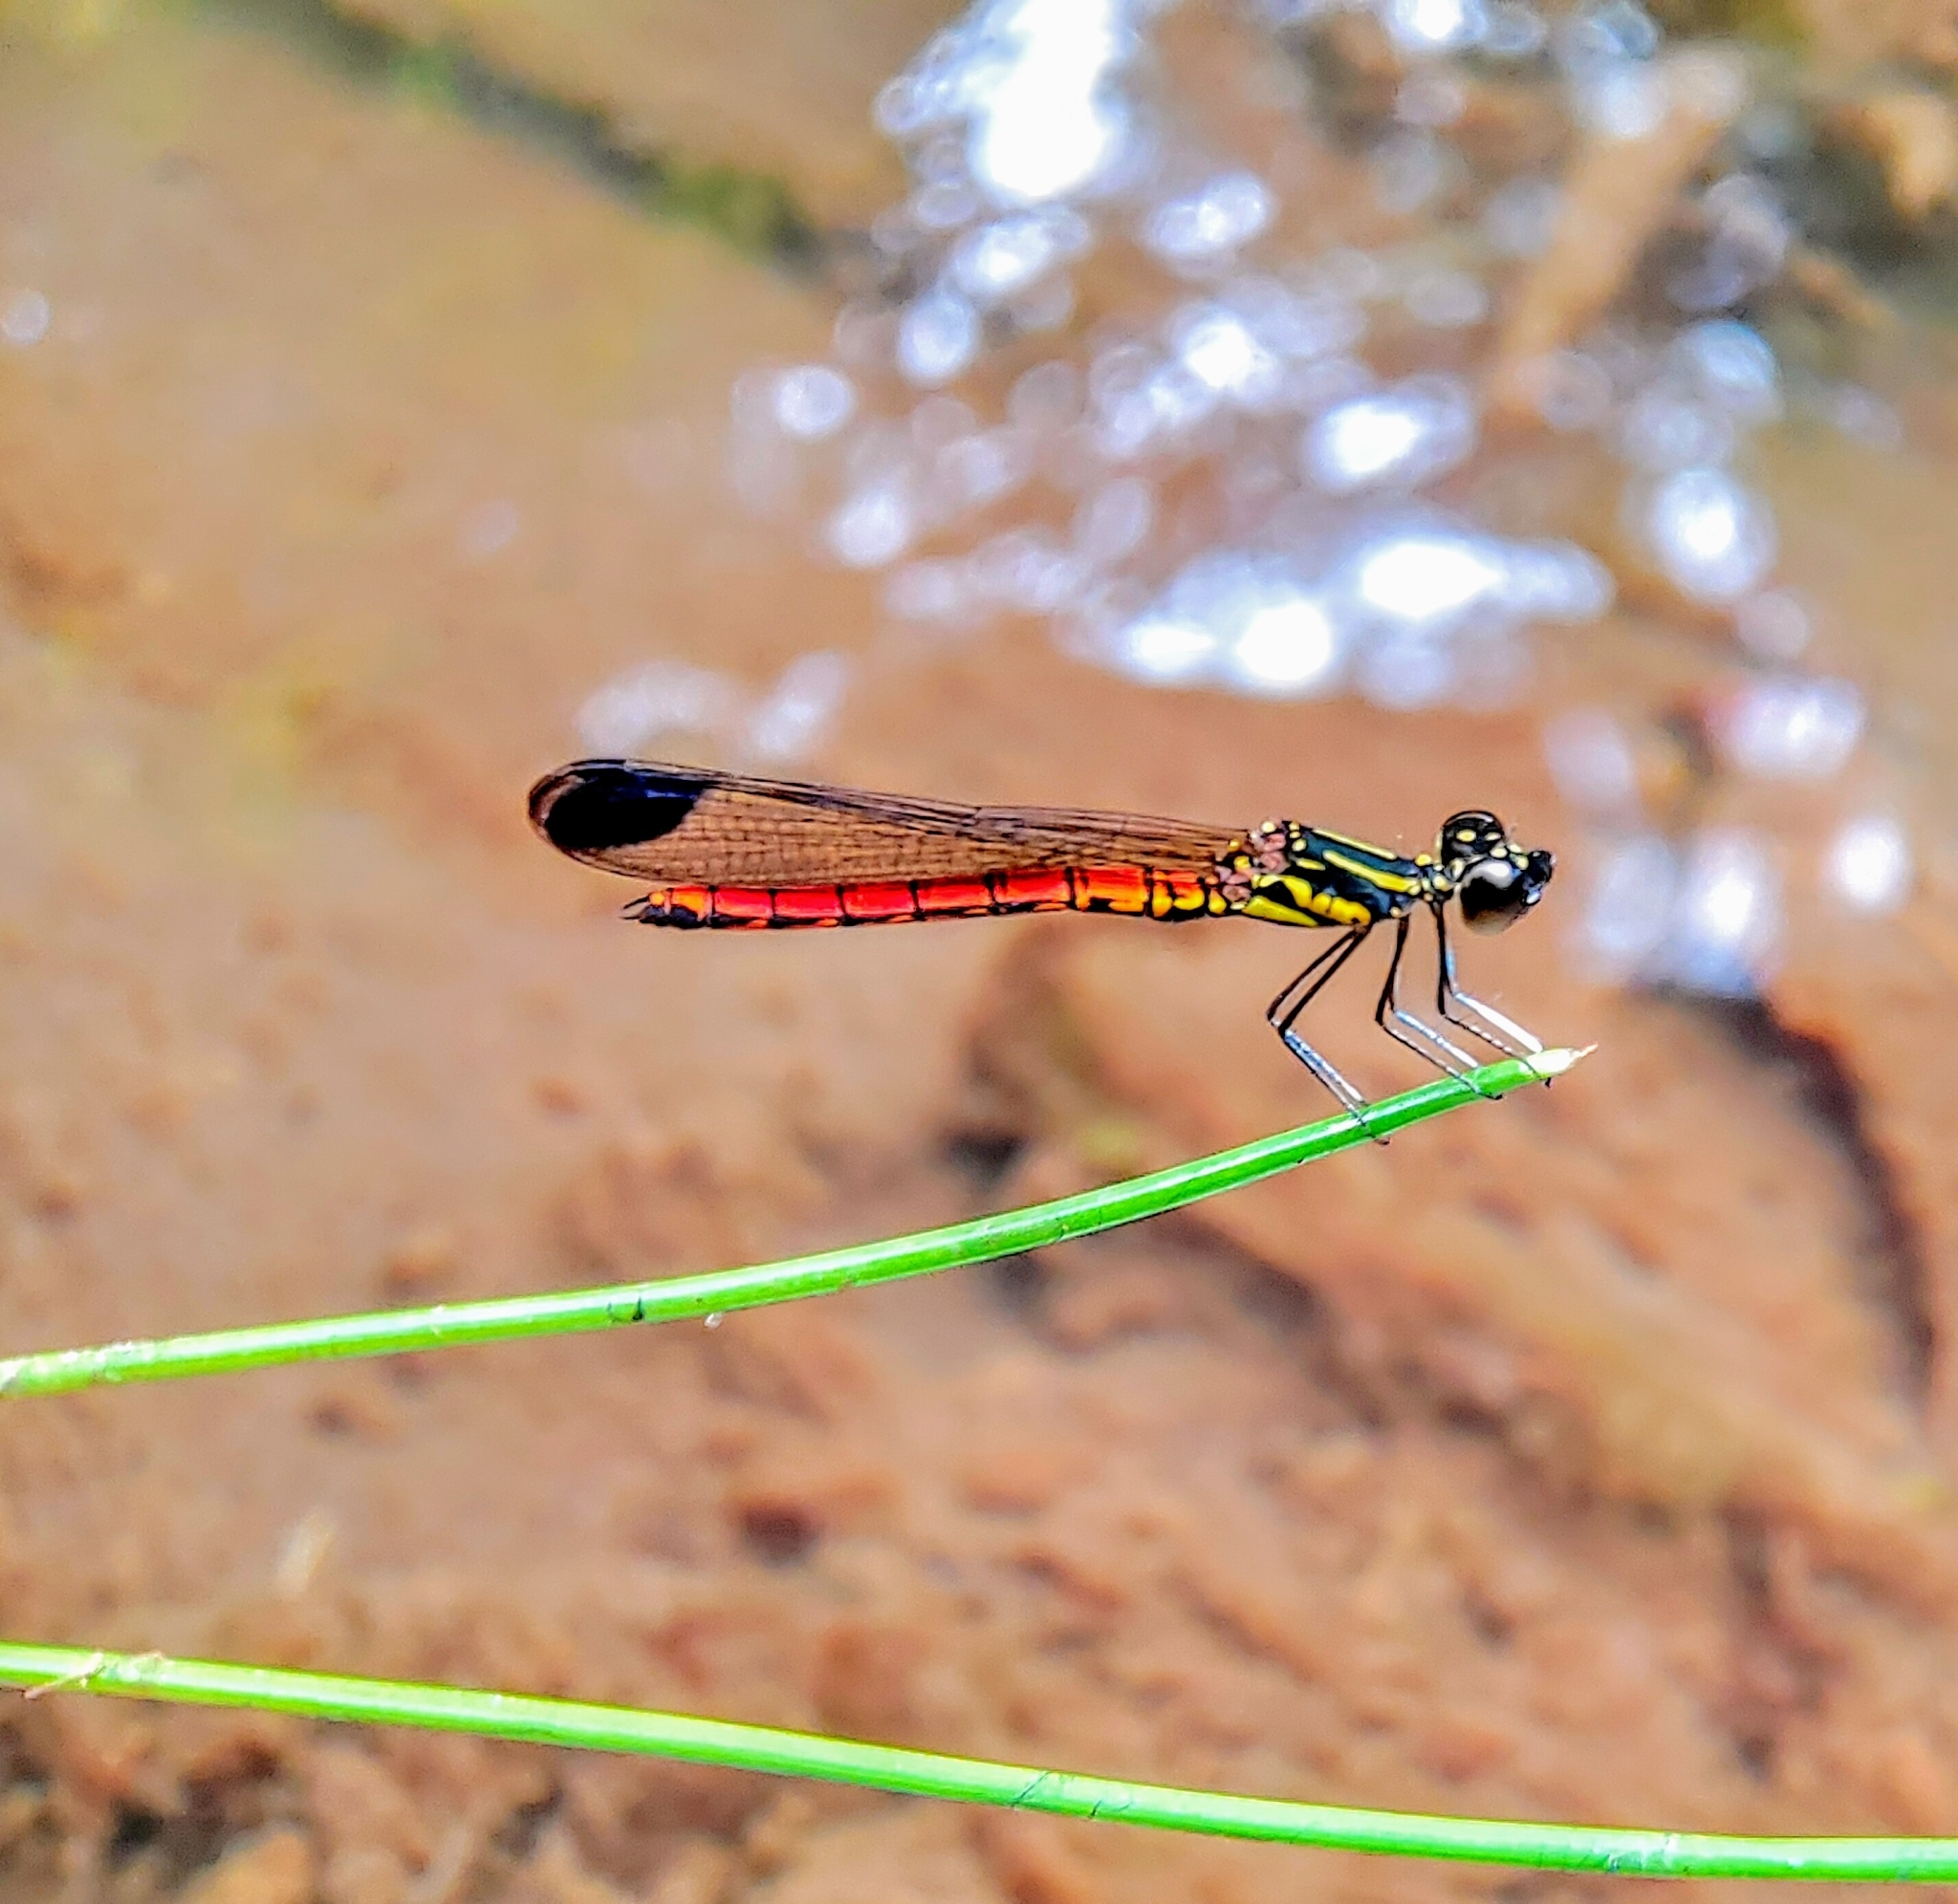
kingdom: Animalia
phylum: Arthropoda
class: Insecta
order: Odonata
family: Chlorocyphidae
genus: Libellago
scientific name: Libellago aurantiaca
